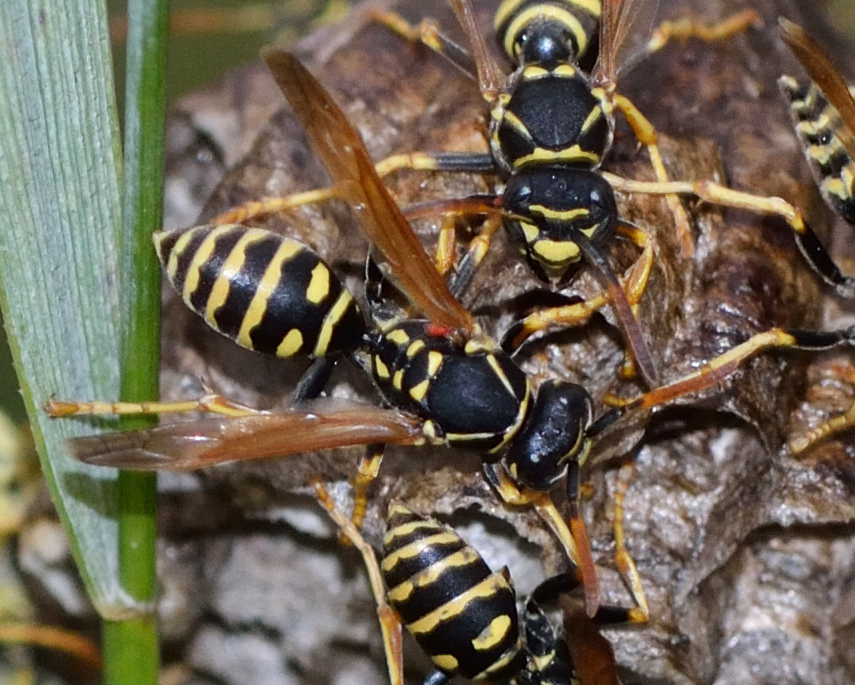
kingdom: Animalia
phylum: Arthropoda
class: Insecta
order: Hymenoptera
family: Eumenidae
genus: Polistes
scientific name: Polistes nimpha
